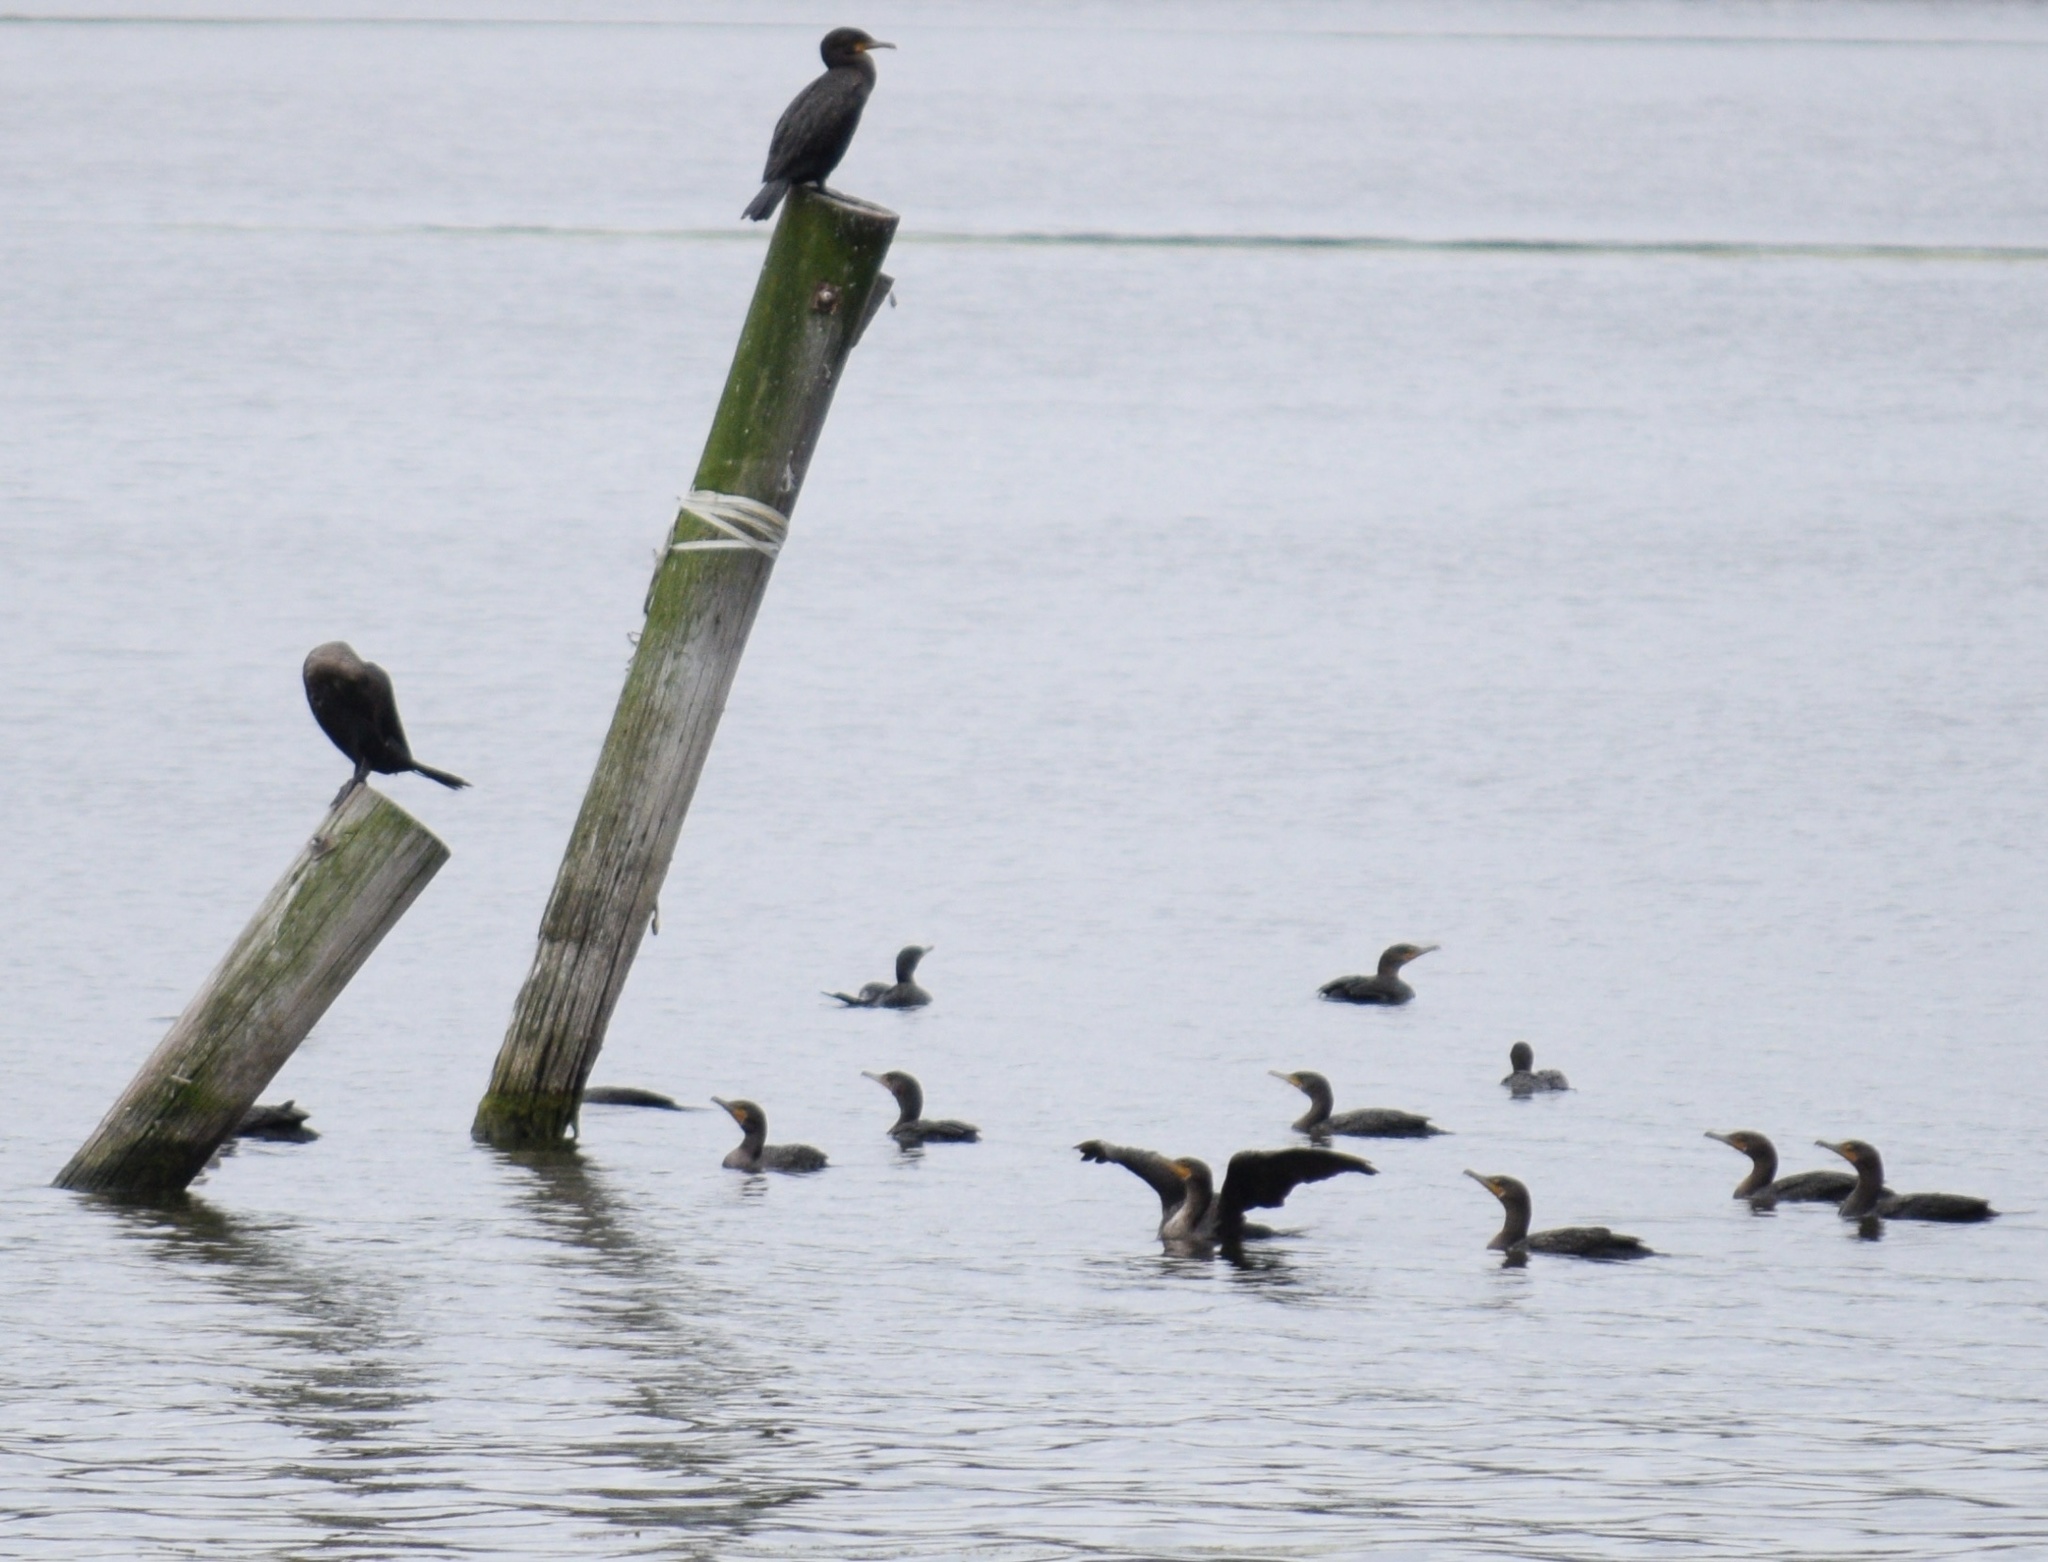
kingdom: Animalia
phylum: Chordata
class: Aves
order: Suliformes
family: Phalacrocoracidae
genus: Phalacrocorax
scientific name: Phalacrocorax auritus
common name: Double-crested cormorant
